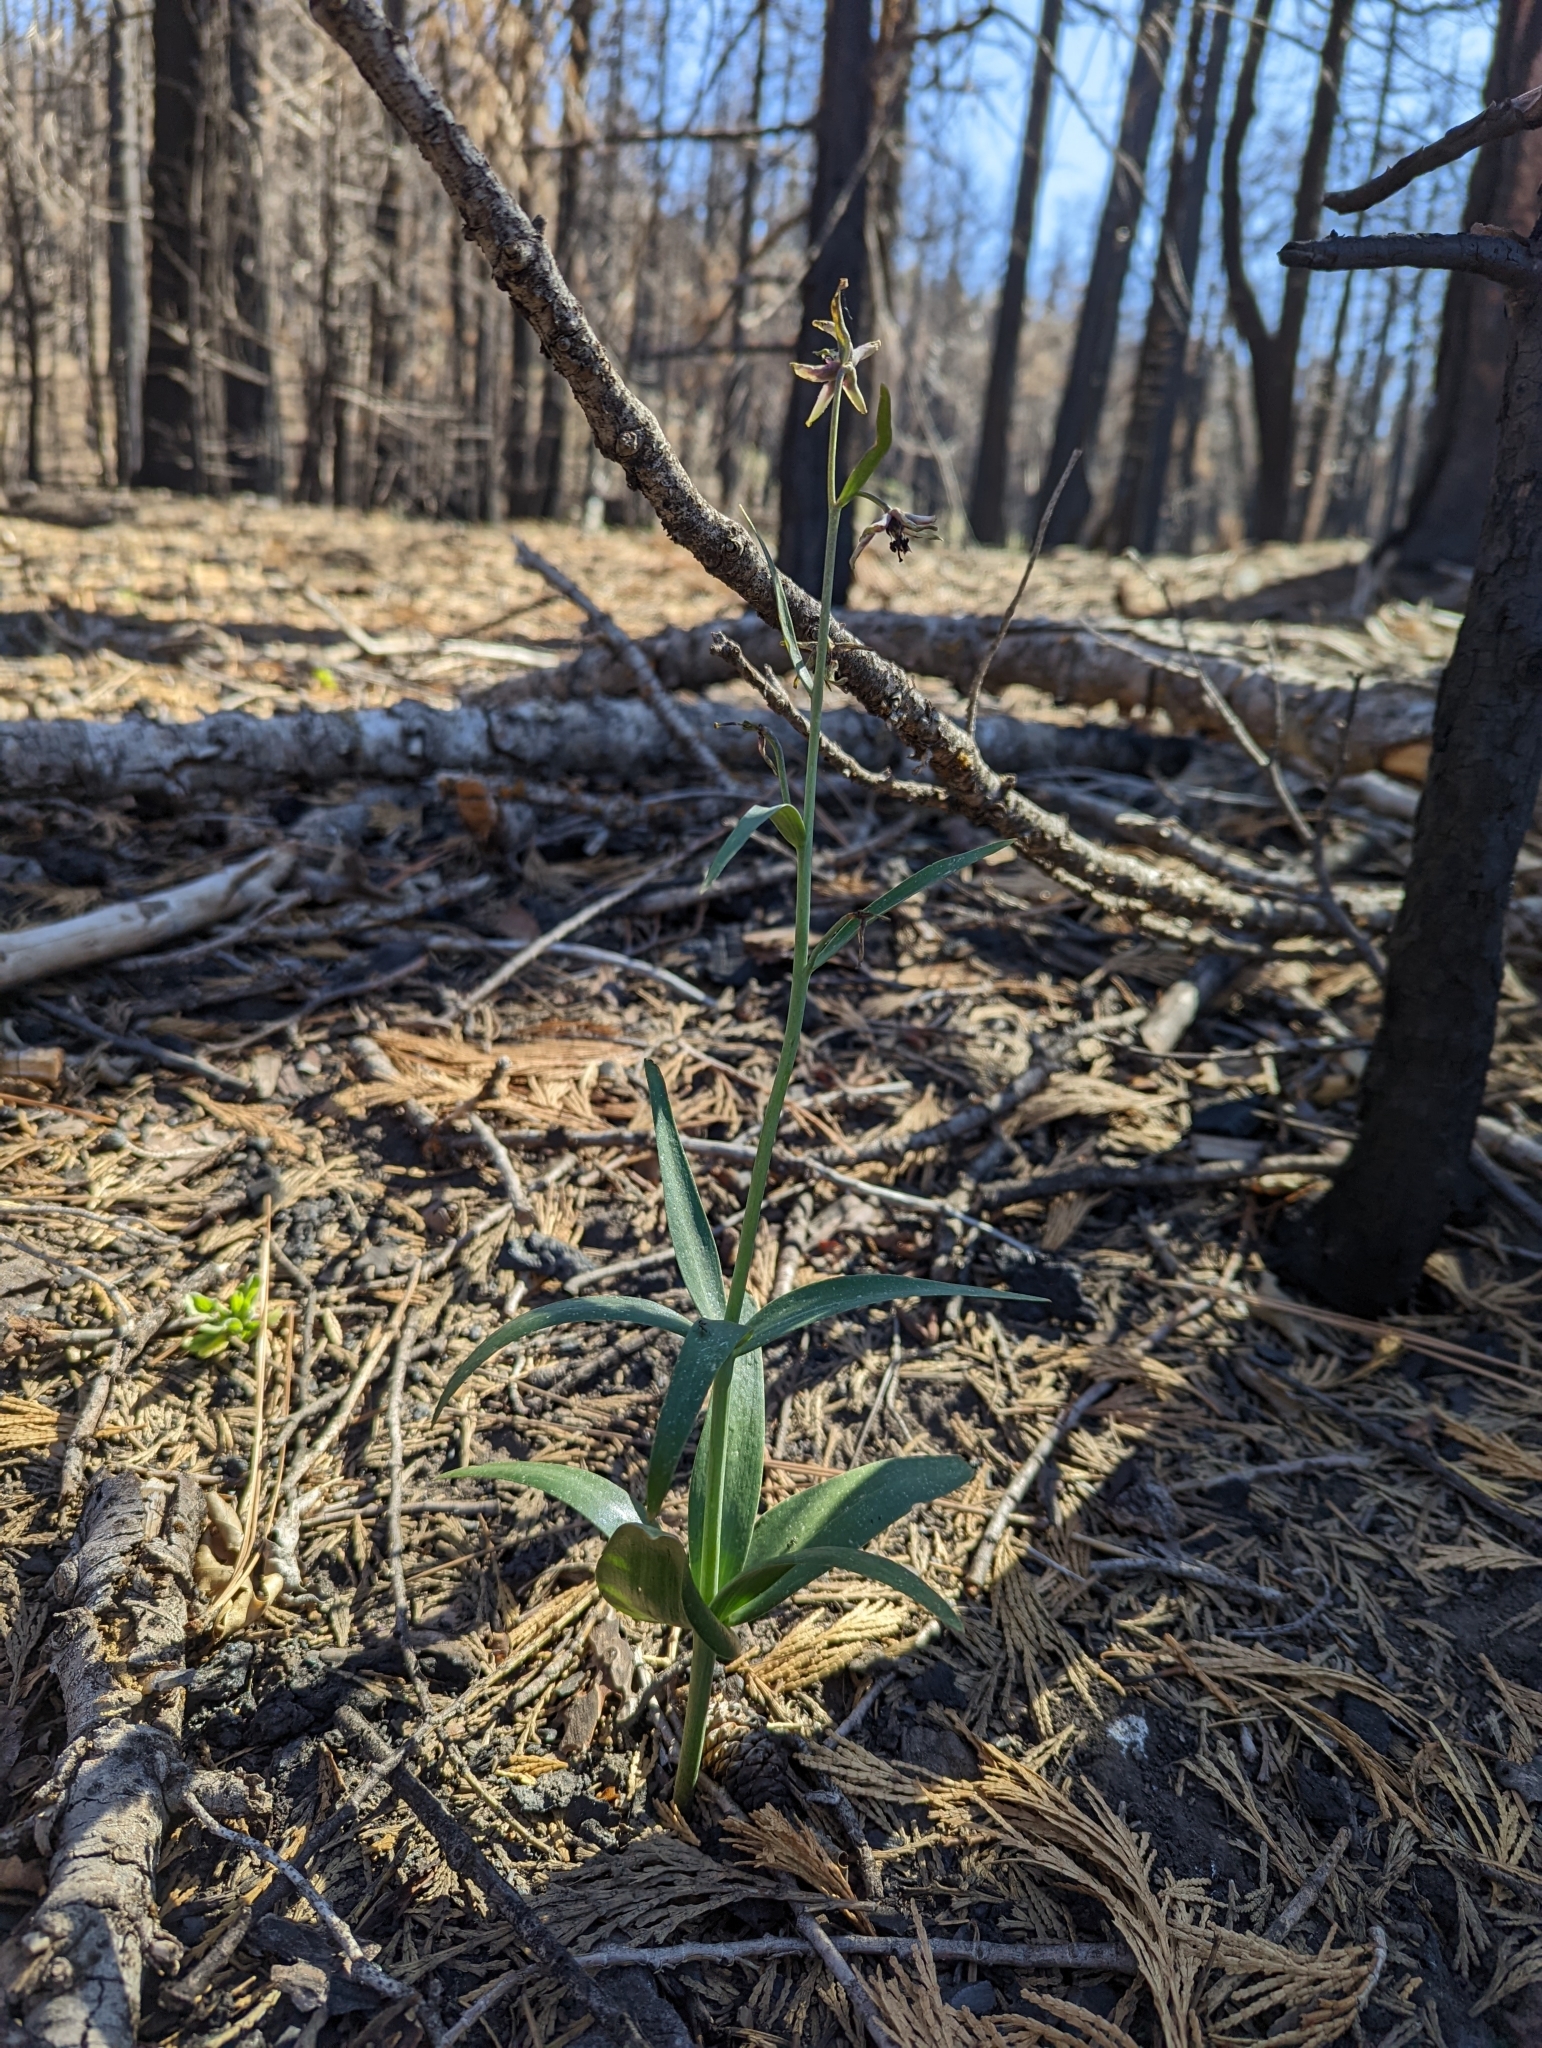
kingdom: Plantae
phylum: Tracheophyta
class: Liliopsida
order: Liliales
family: Liliaceae
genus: Fritillaria
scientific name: Fritillaria brandegeei
